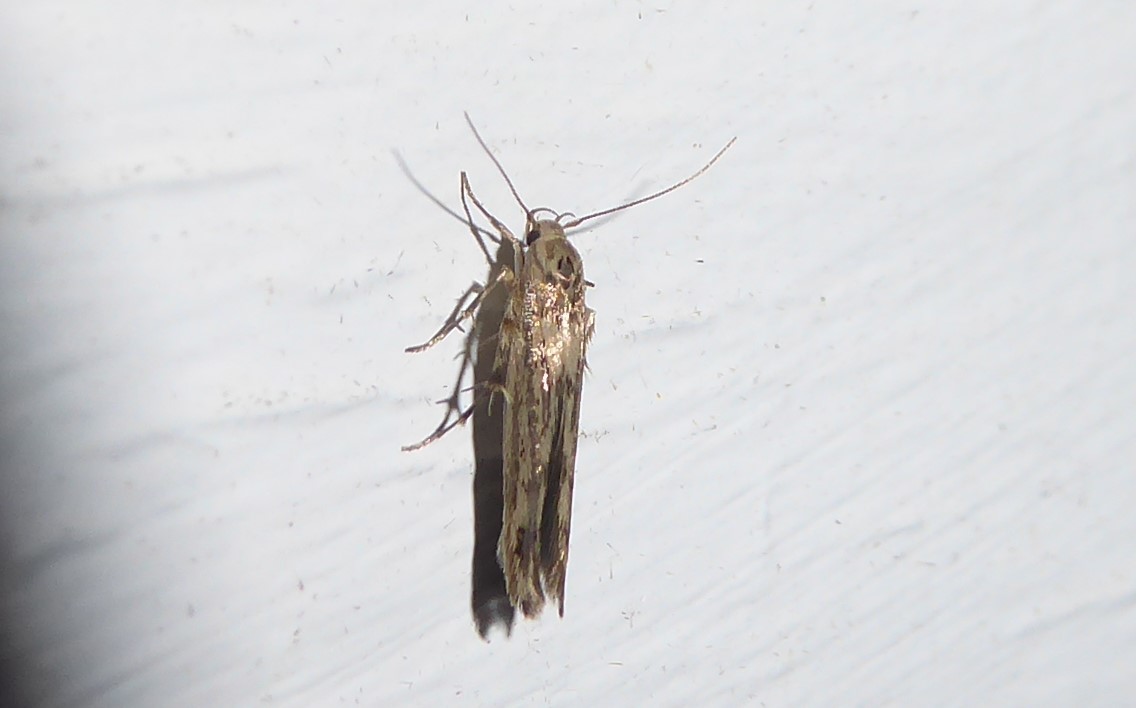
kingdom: Animalia
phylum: Arthropoda
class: Insecta
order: Lepidoptera
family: Stathmopodidae
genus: Stathmopoda
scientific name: Stathmopoda plumbiflua
